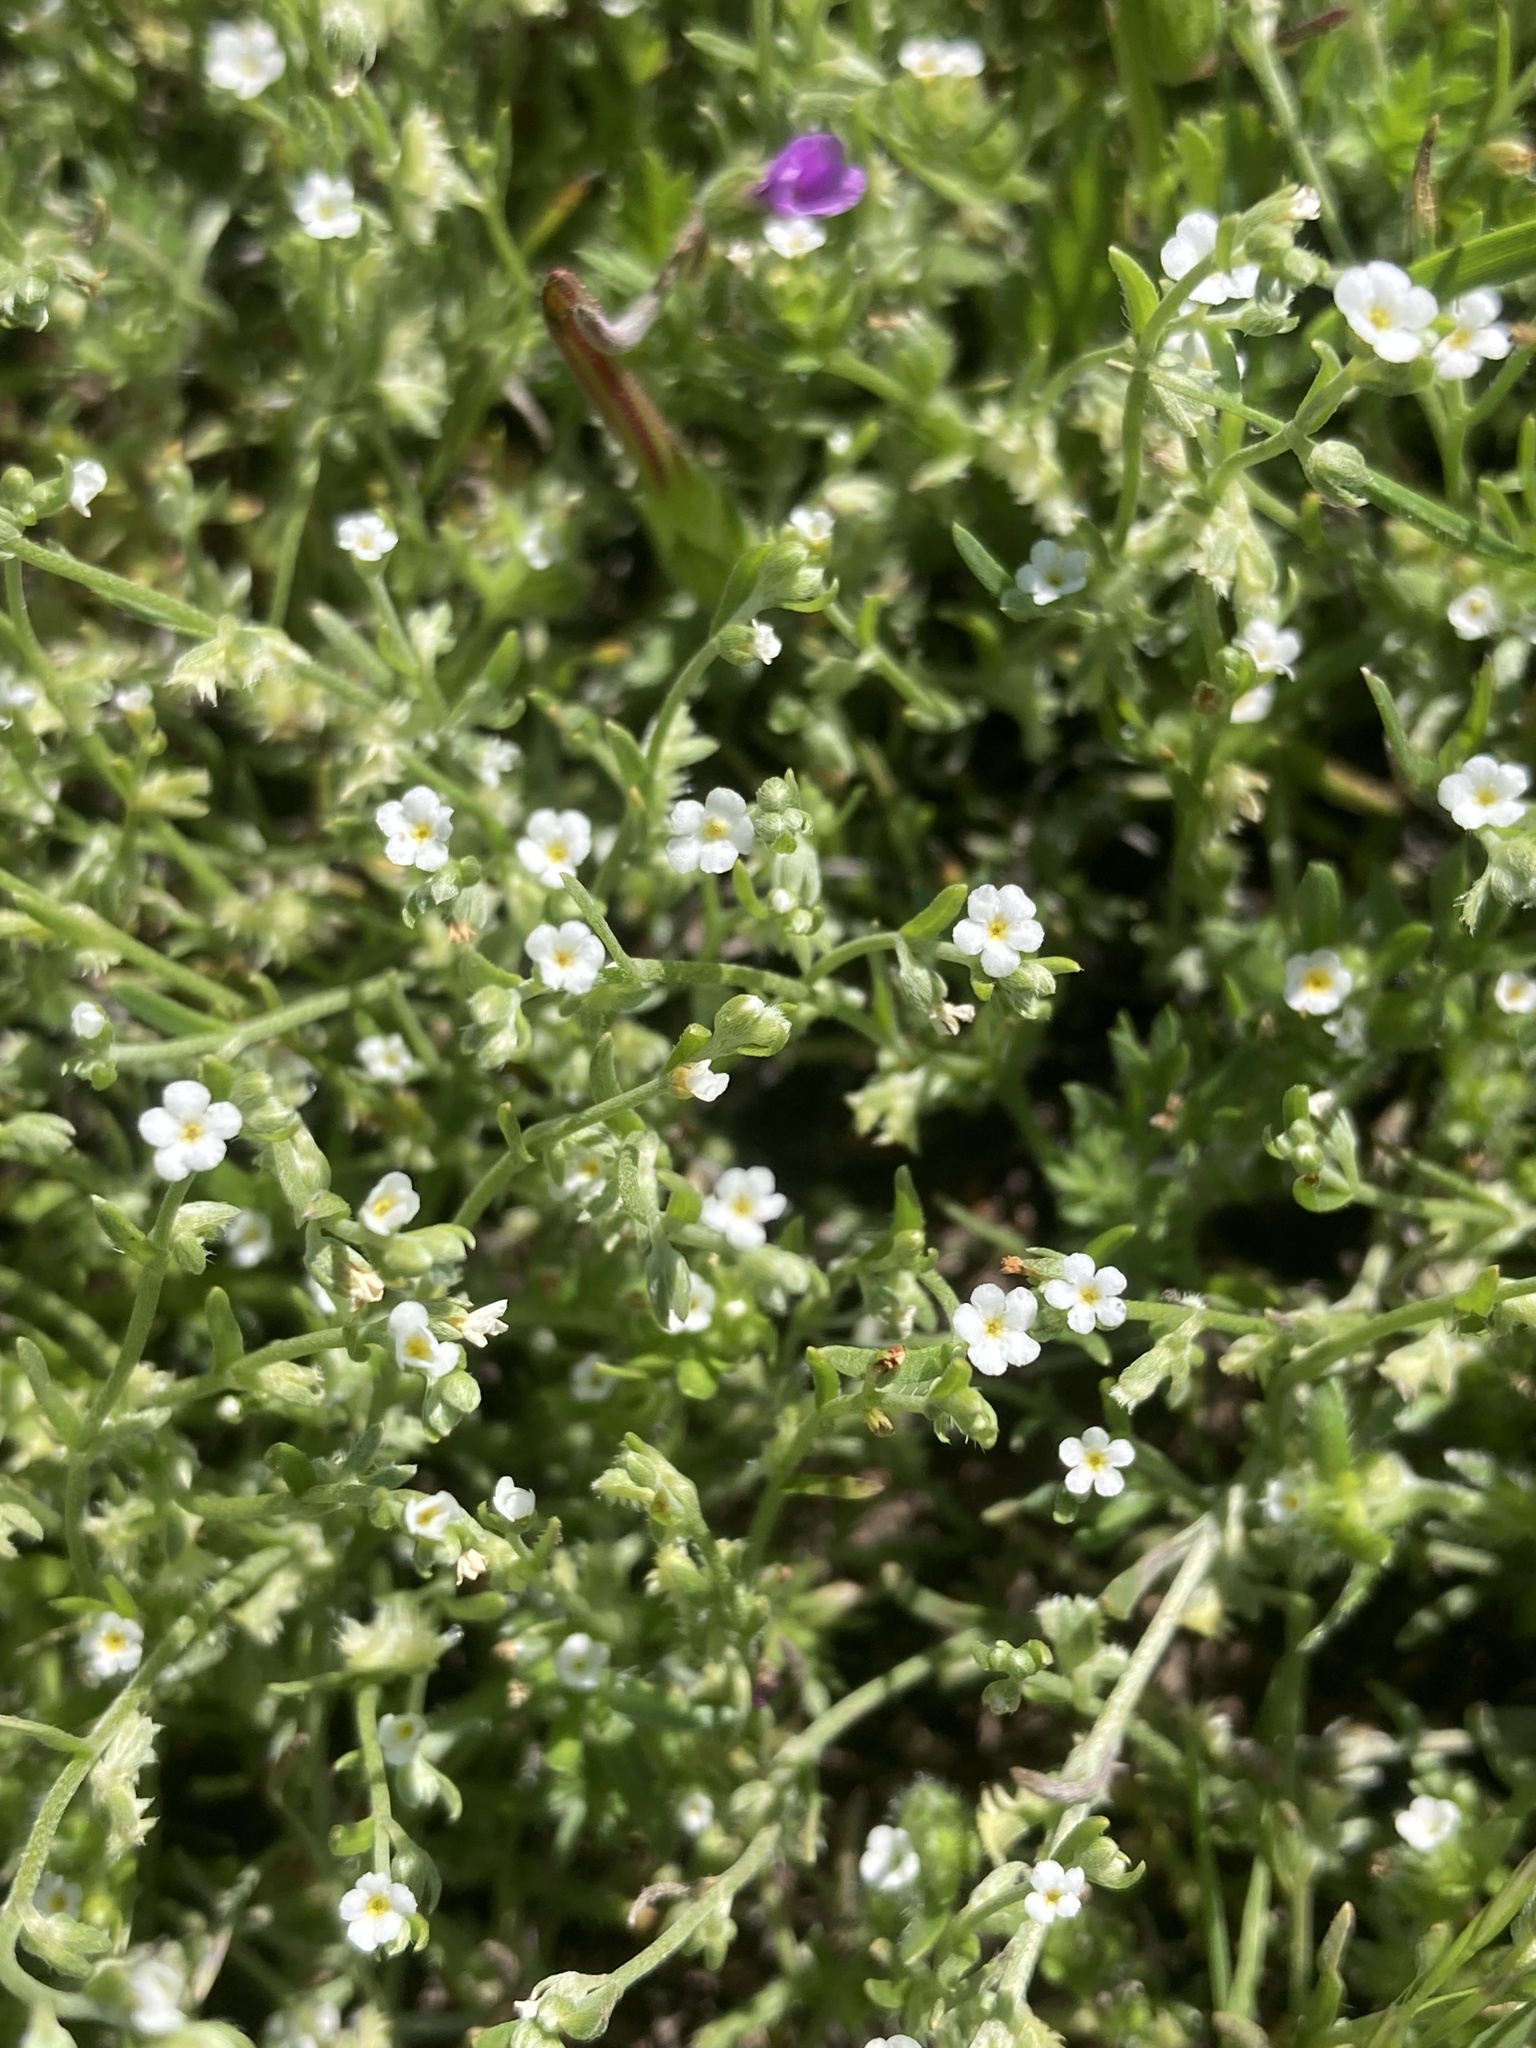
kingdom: Plantae
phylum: Tracheophyta
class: Magnoliopsida
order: Boraginales
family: Boraginaceae
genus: Pectocarya
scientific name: Pectocarya linearis
